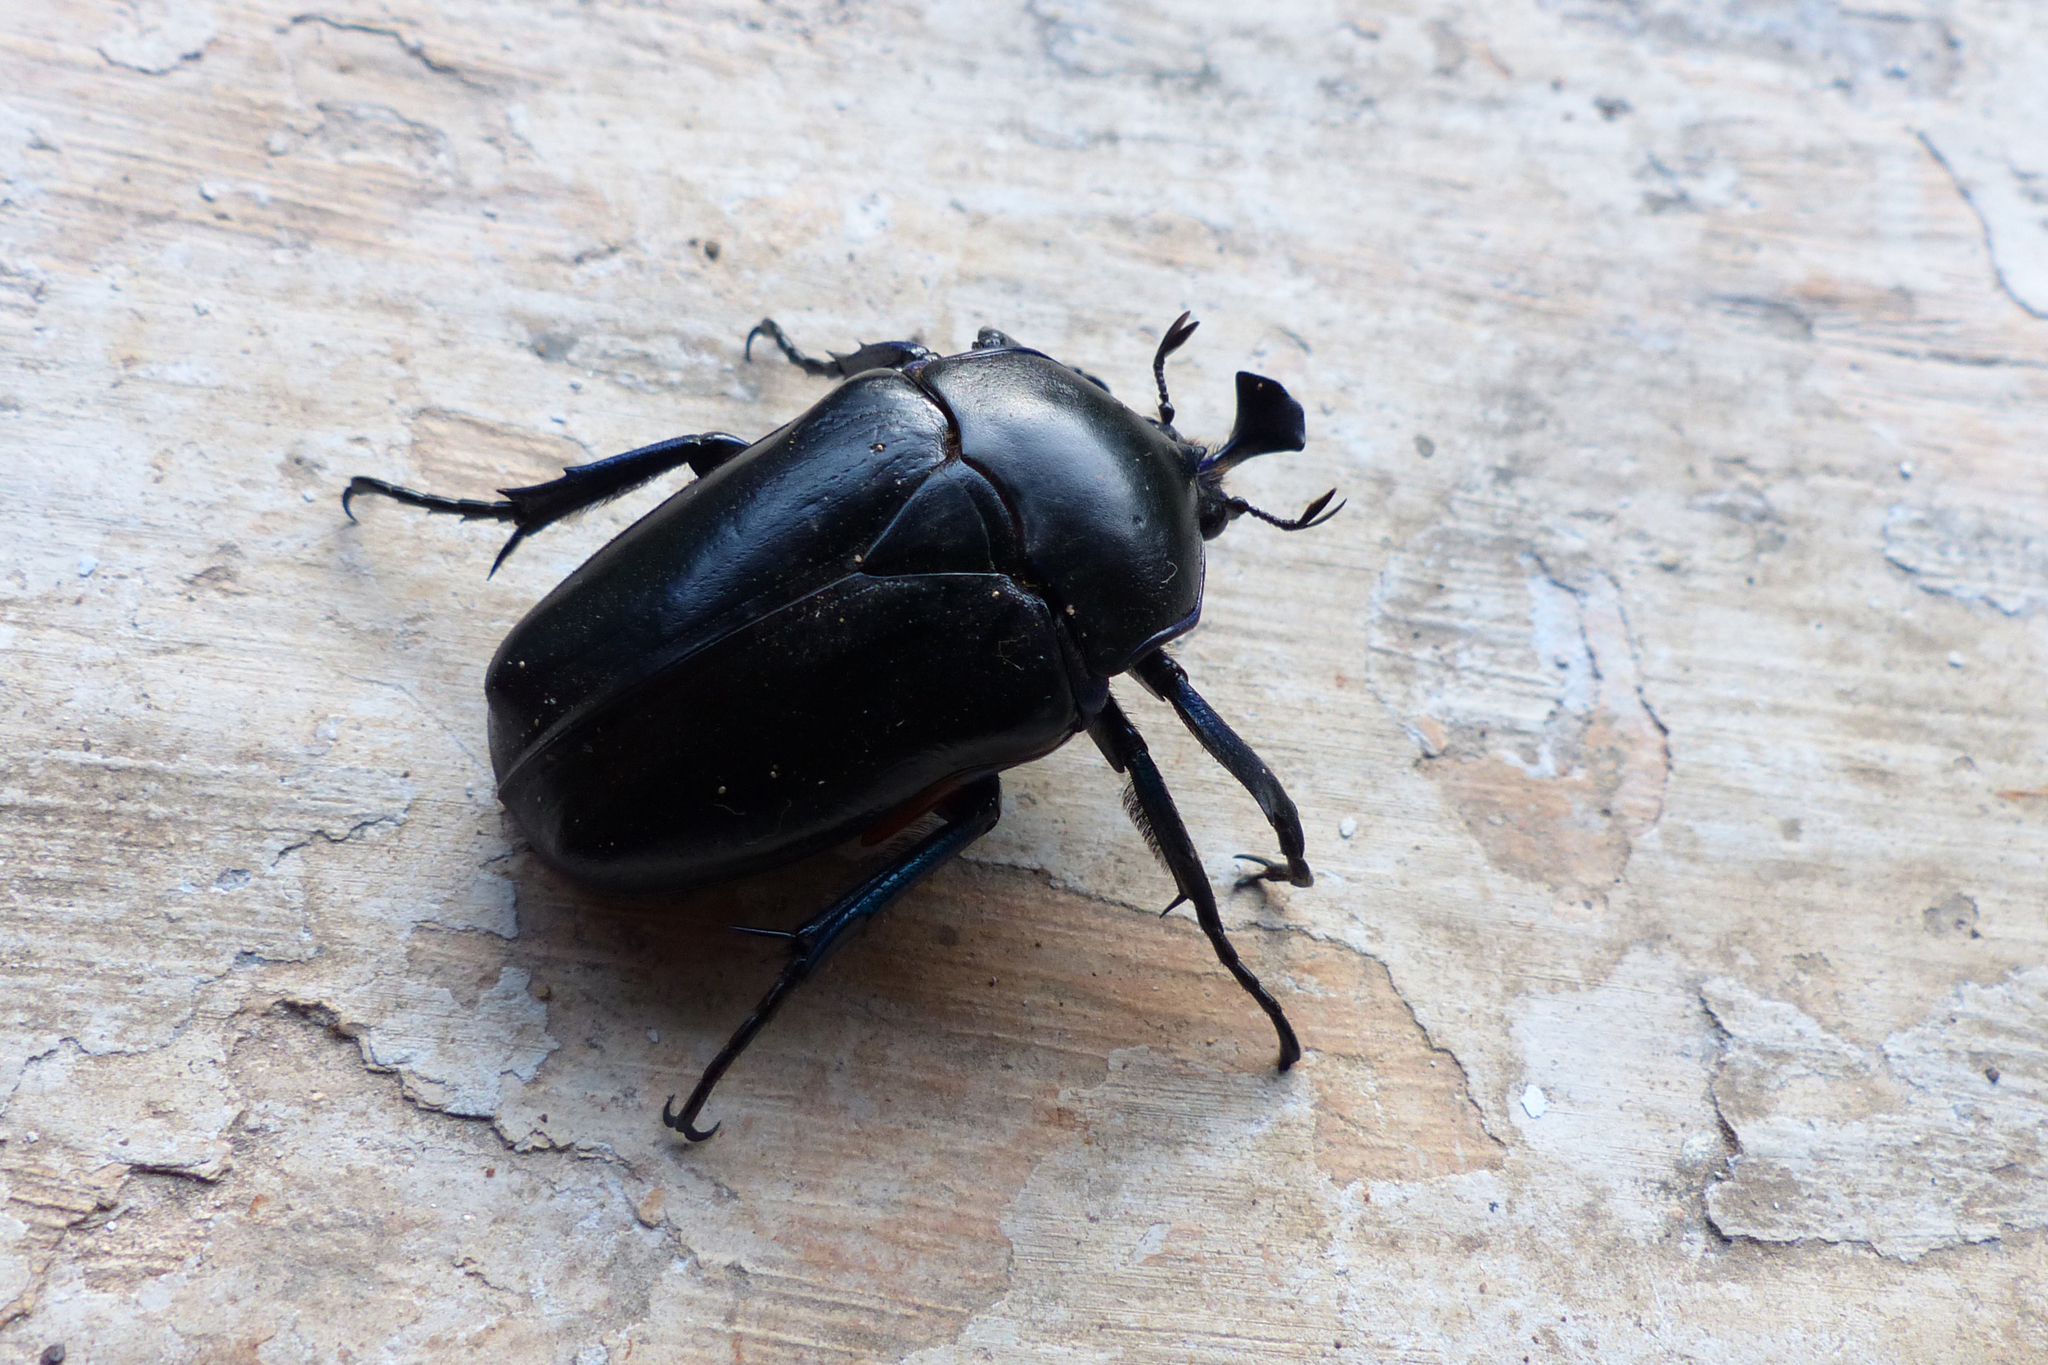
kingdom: Animalia
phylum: Arthropoda
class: Insecta
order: Coleoptera
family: Scarabaeidae
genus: Trigonophorus
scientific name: Trigonophorus delesserti
